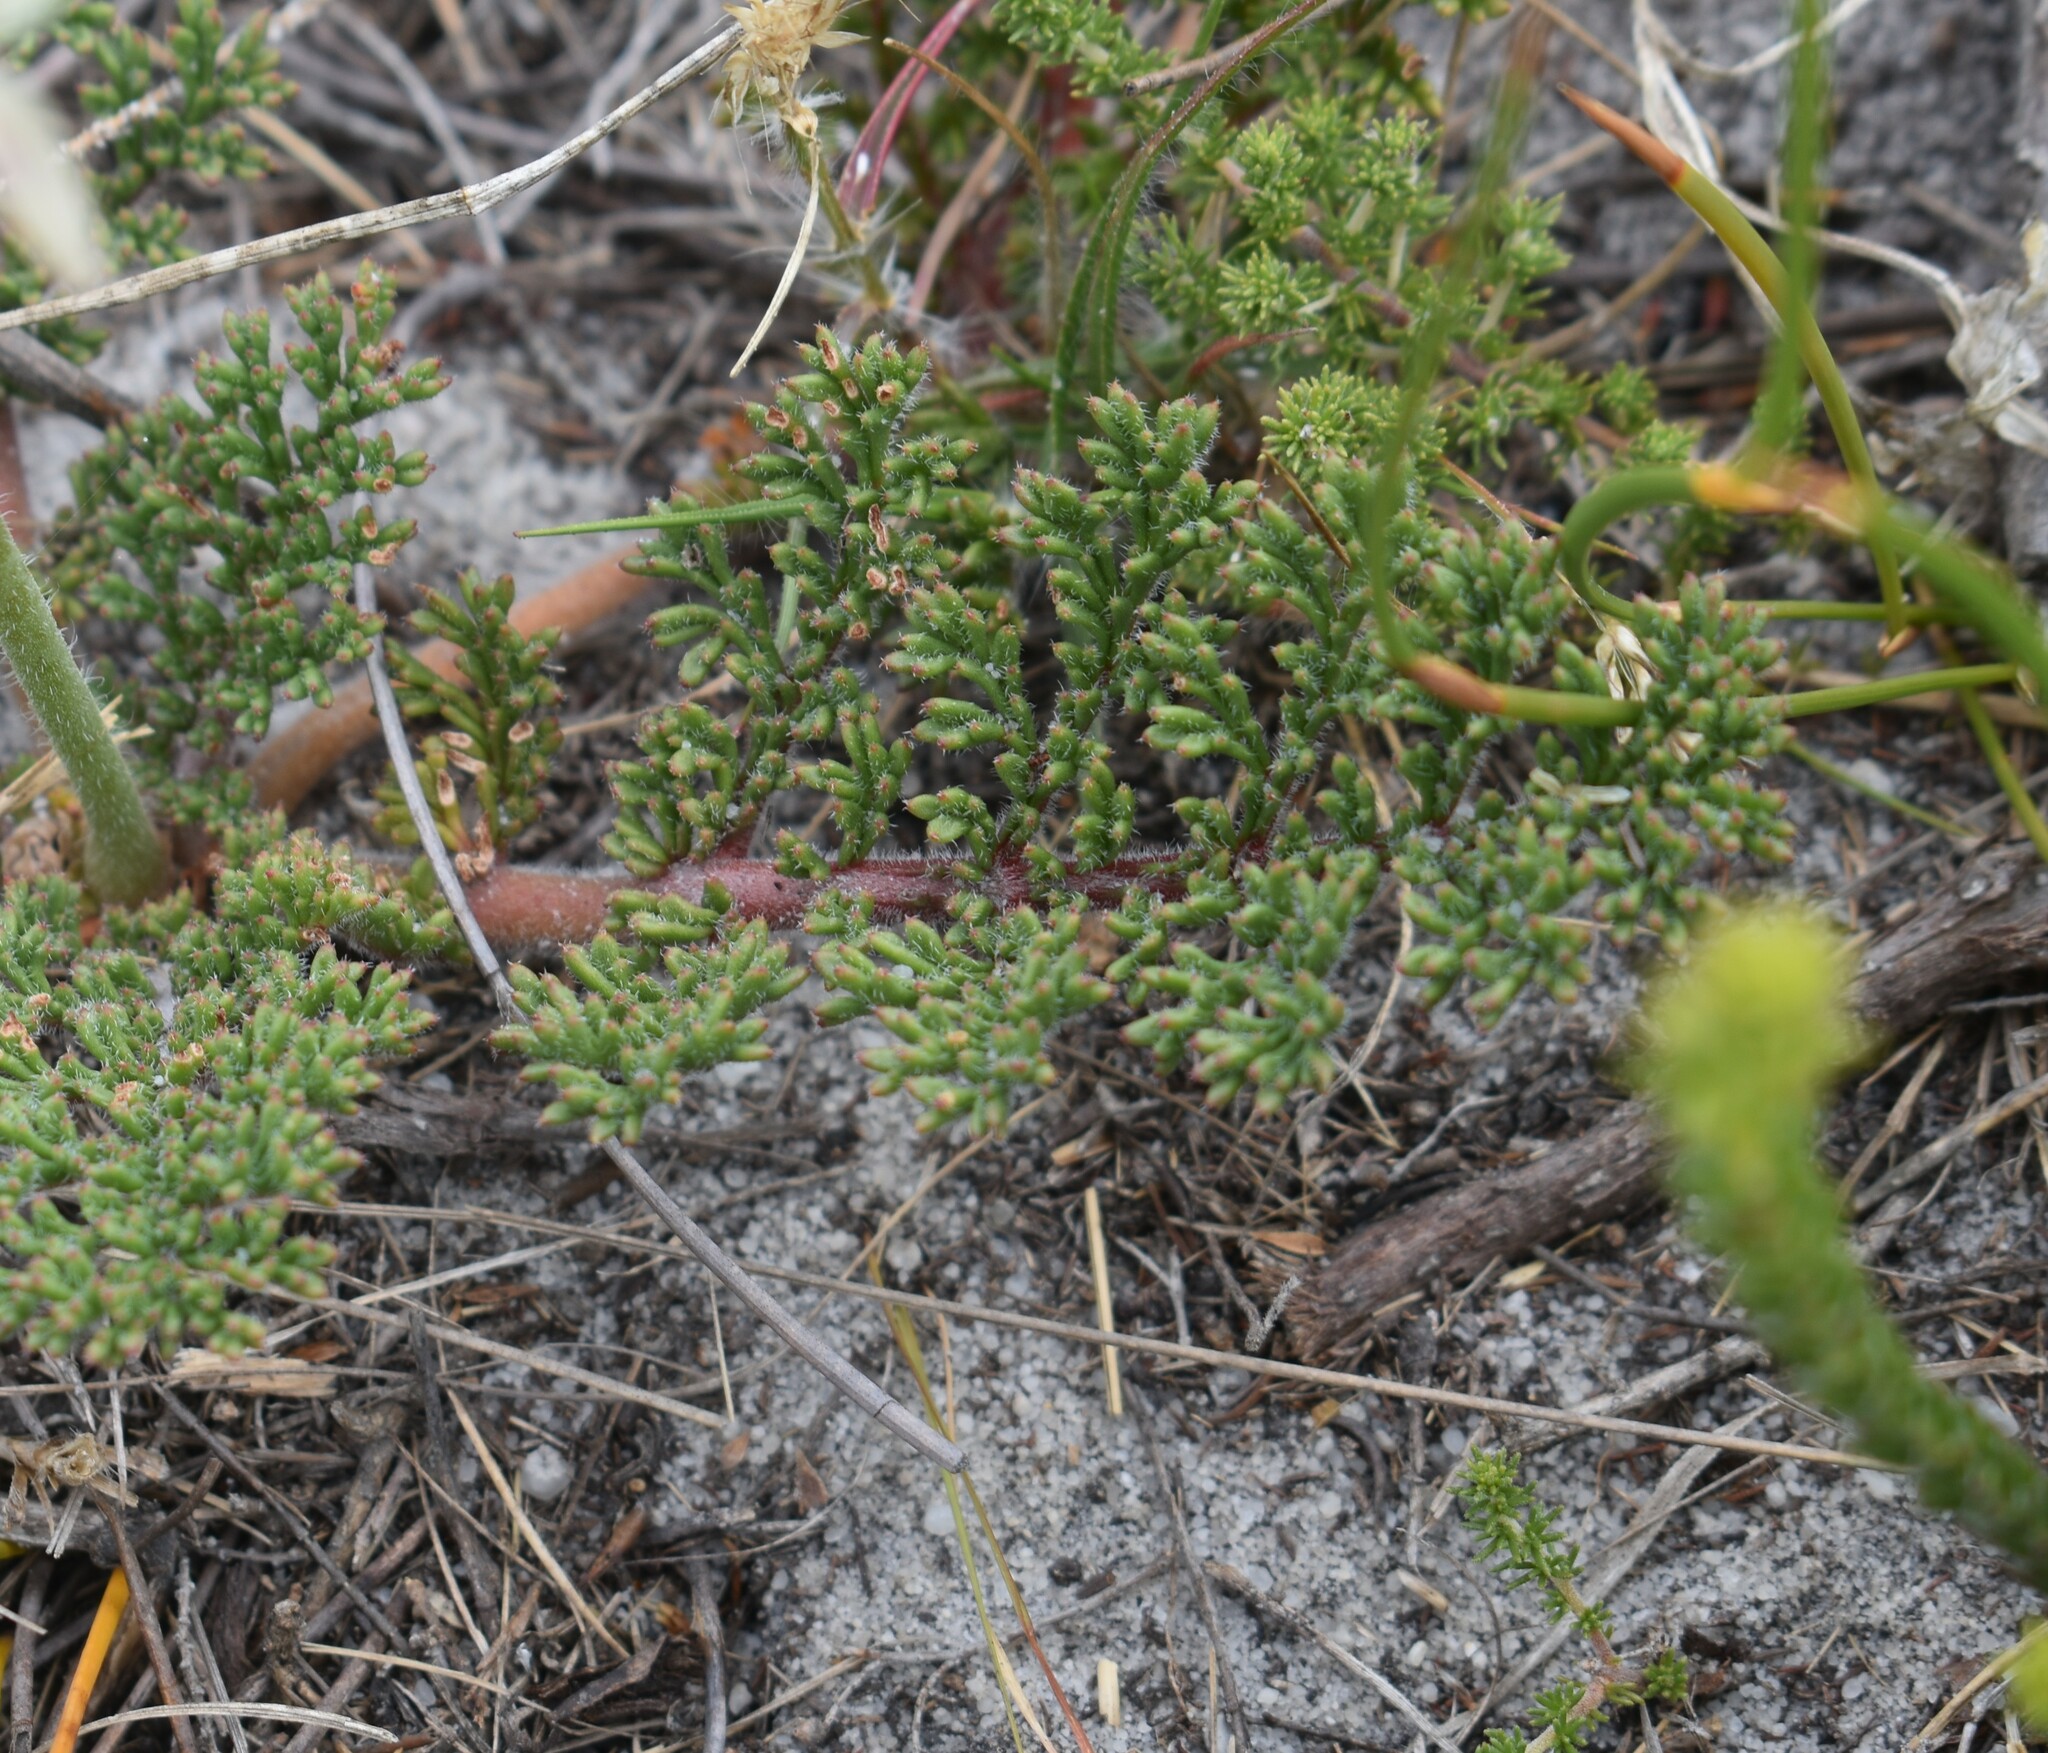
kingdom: Plantae
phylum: Tracheophyta
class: Magnoliopsida
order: Geraniales
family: Geraniaceae
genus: Pelargonium
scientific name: Pelargonium triste
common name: Night-scent pelargonium
